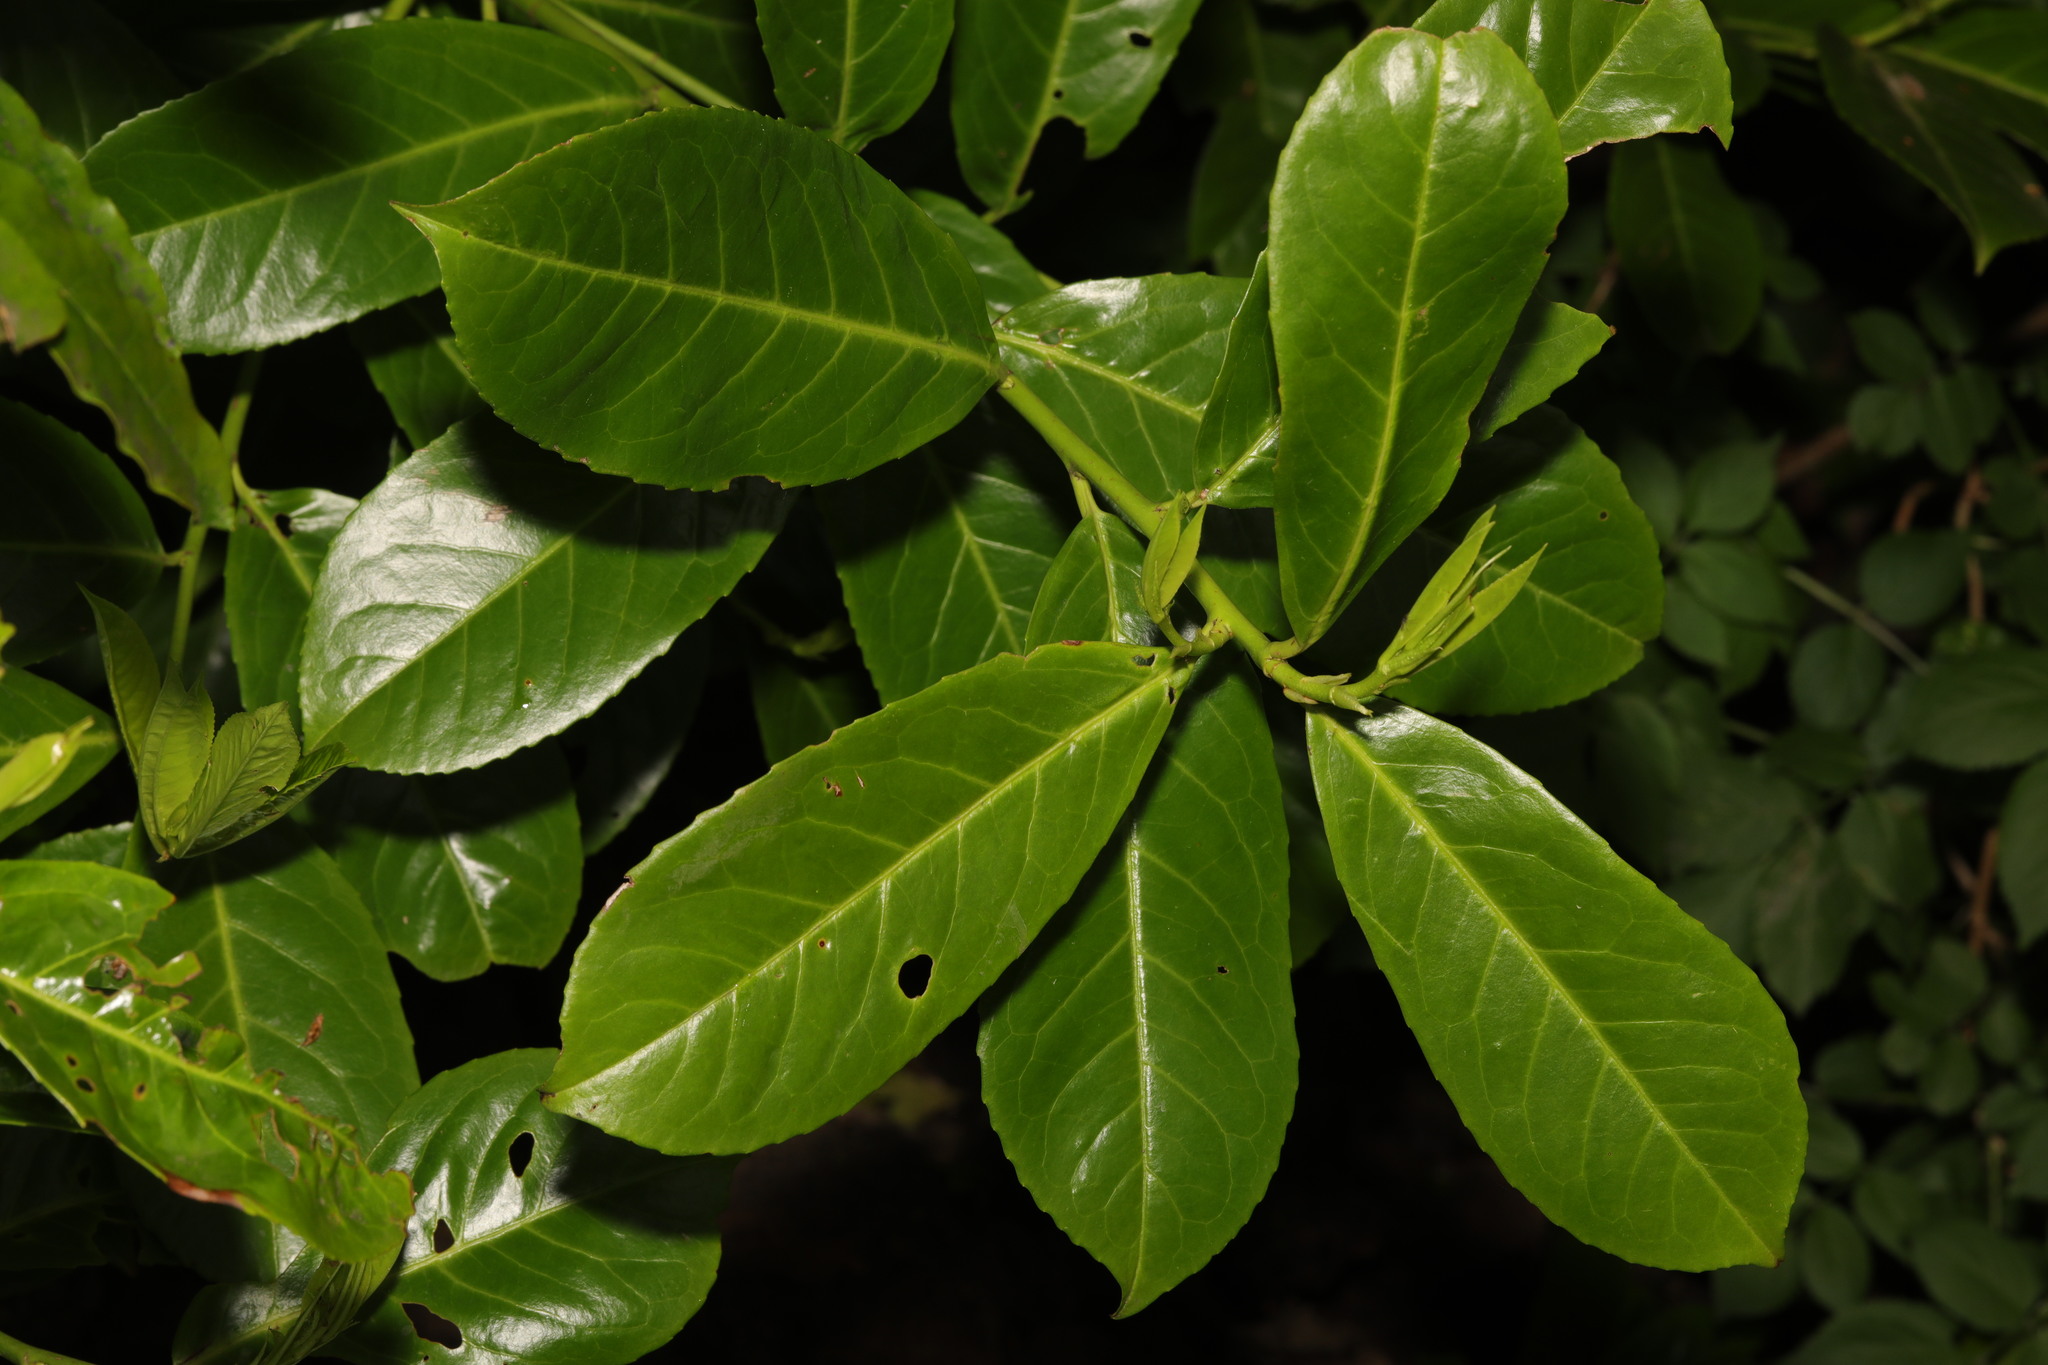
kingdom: Plantae
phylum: Tracheophyta
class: Magnoliopsida
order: Rosales
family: Rosaceae
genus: Prunus
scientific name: Prunus laurocerasus
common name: Cherry laurel
